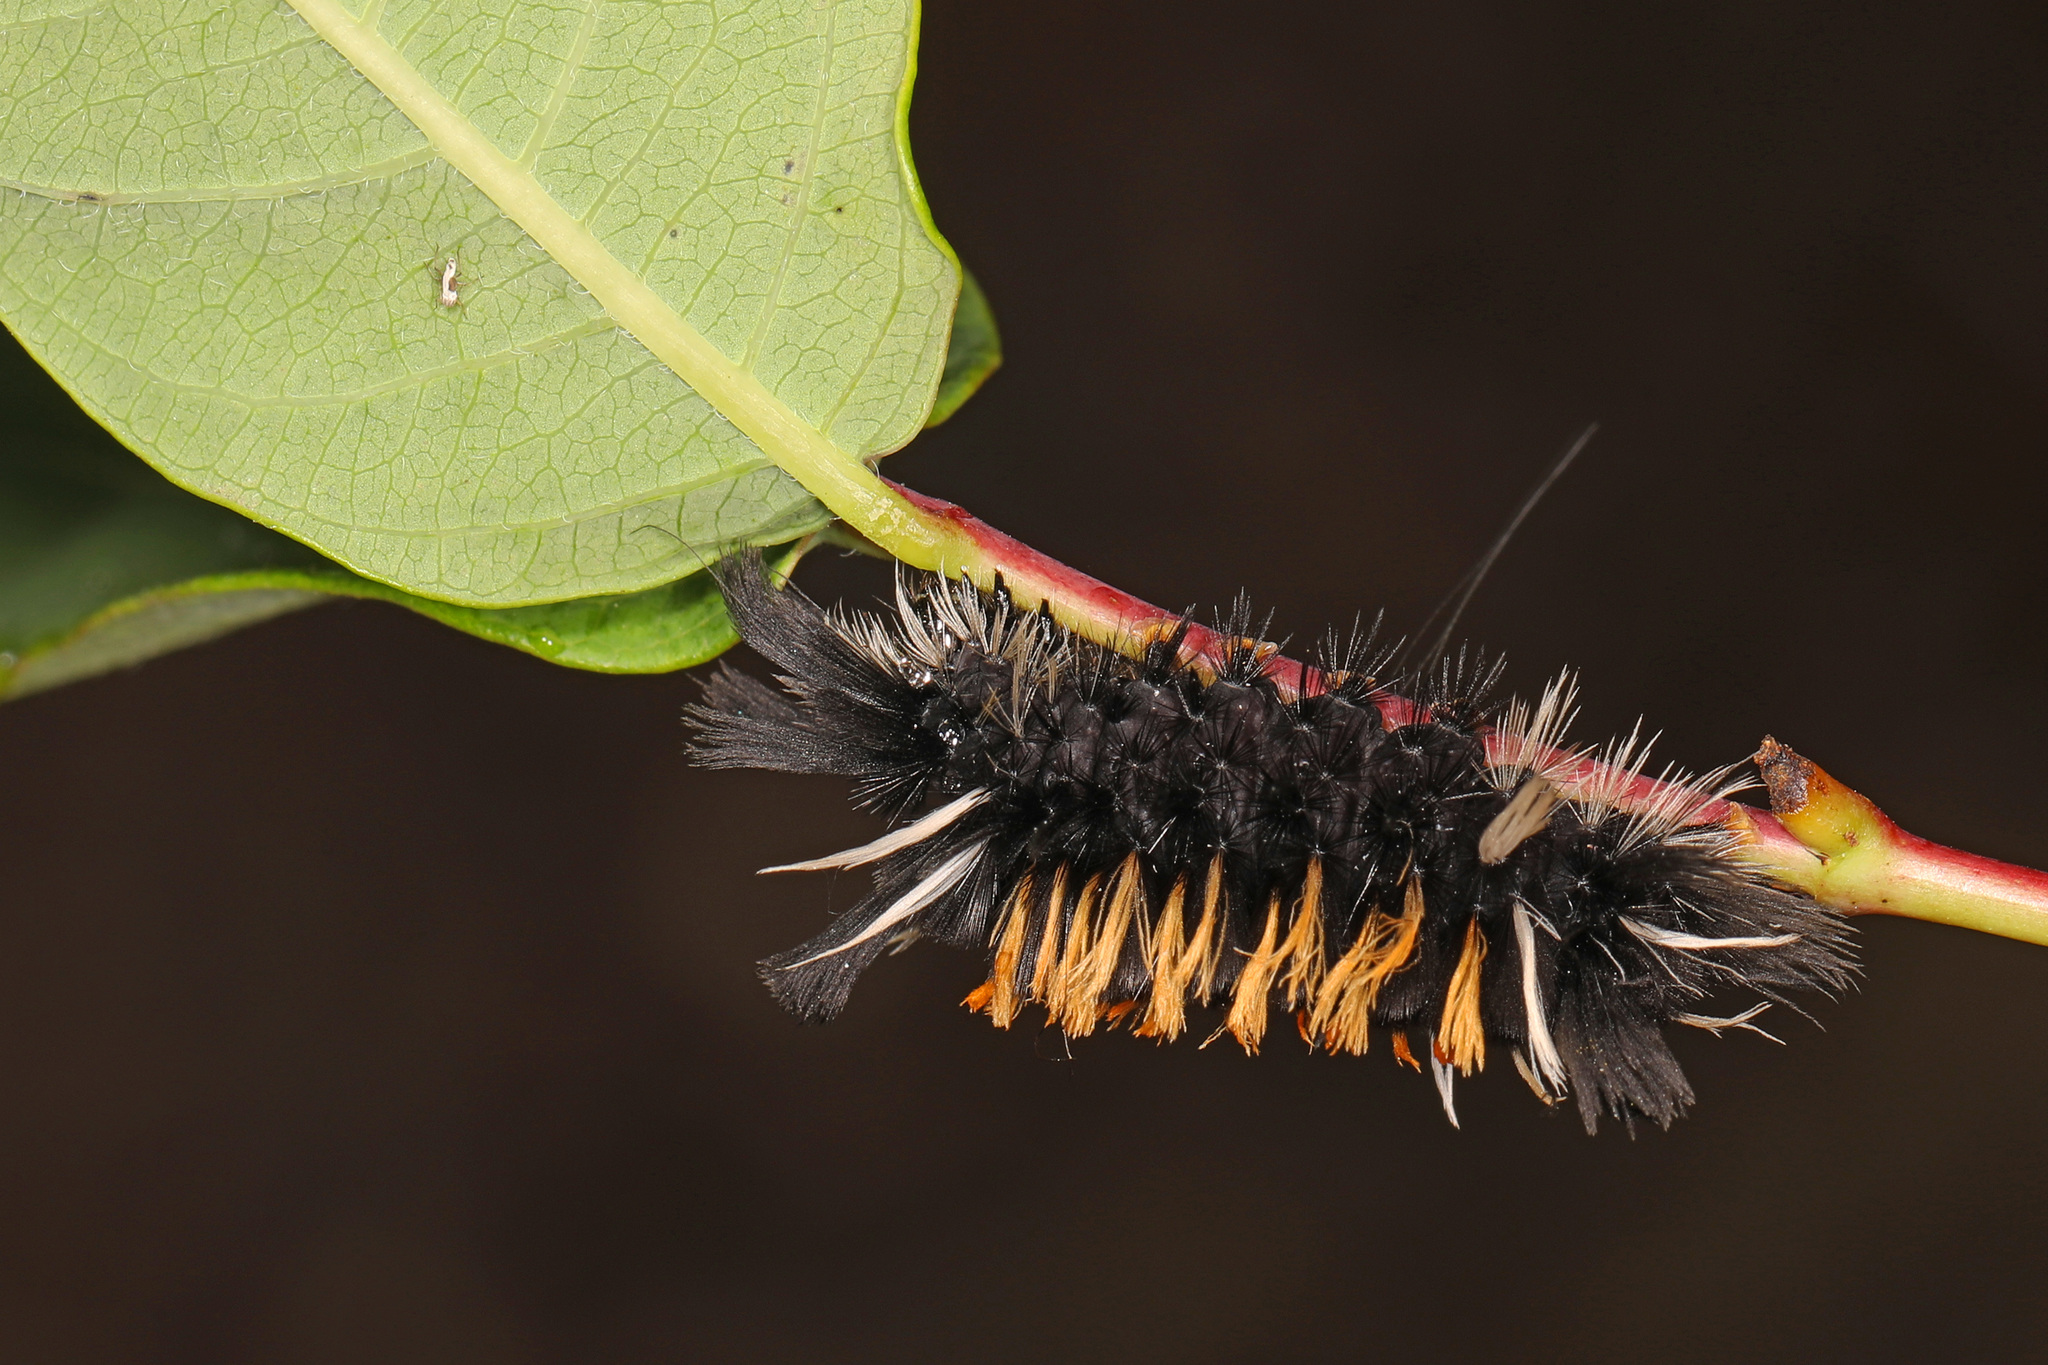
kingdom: Animalia
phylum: Arthropoda
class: Insecta
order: Lepidoptera
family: Erebidae
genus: Euchaetes
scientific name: Euchaetes egle
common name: Milkweed tussock moth
